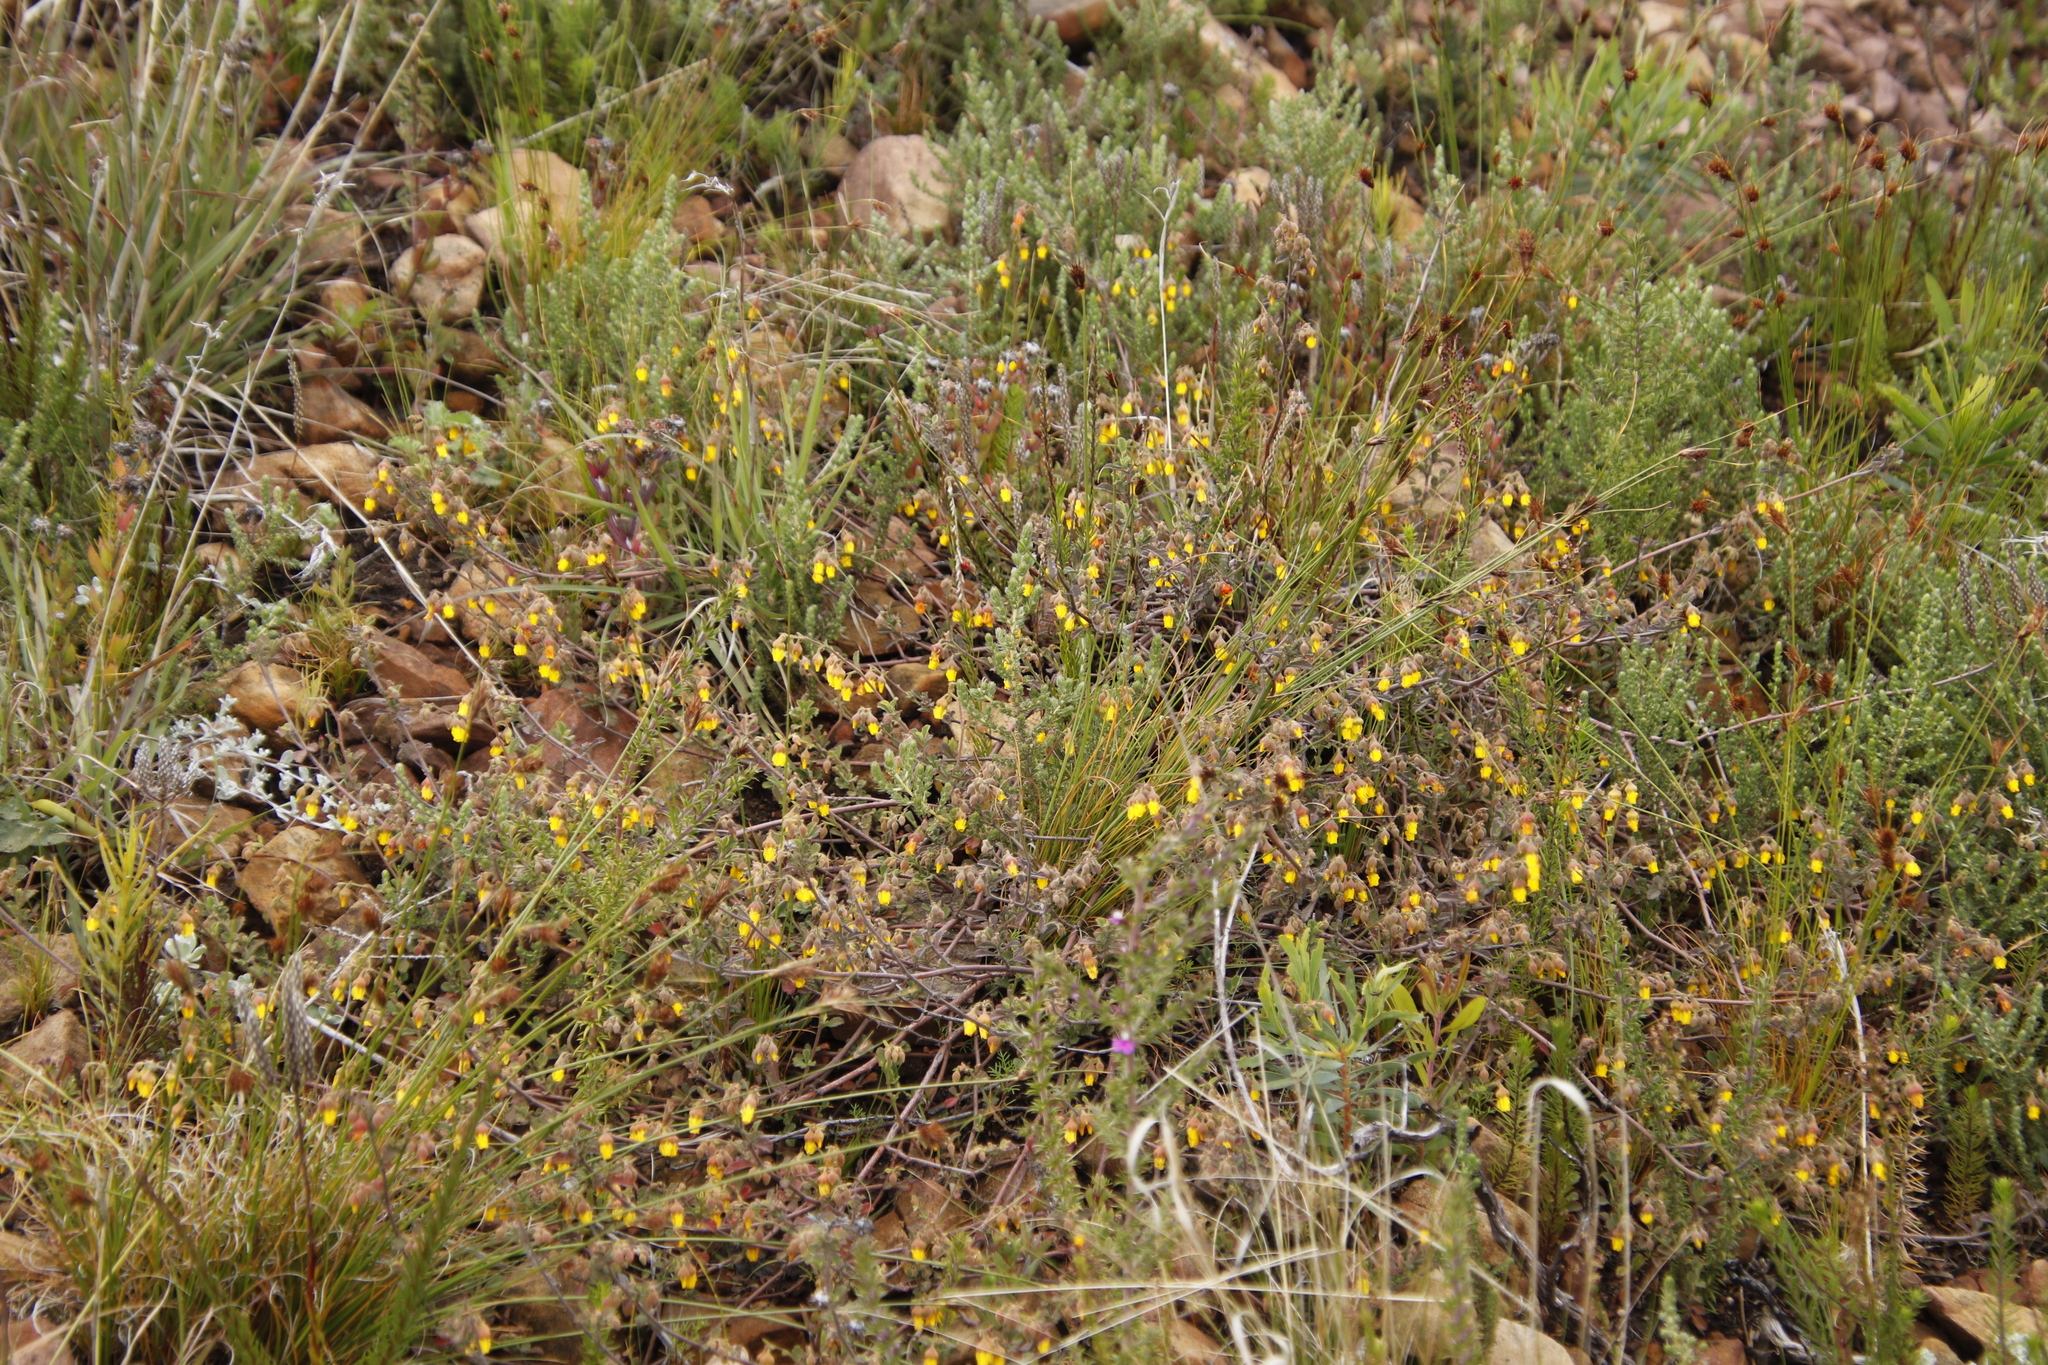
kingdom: Plantae
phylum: Tracheophyta
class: Magnoliopsida
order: Malvales
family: Malvaceae
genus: Hermannia
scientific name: Hermannia multiflora
